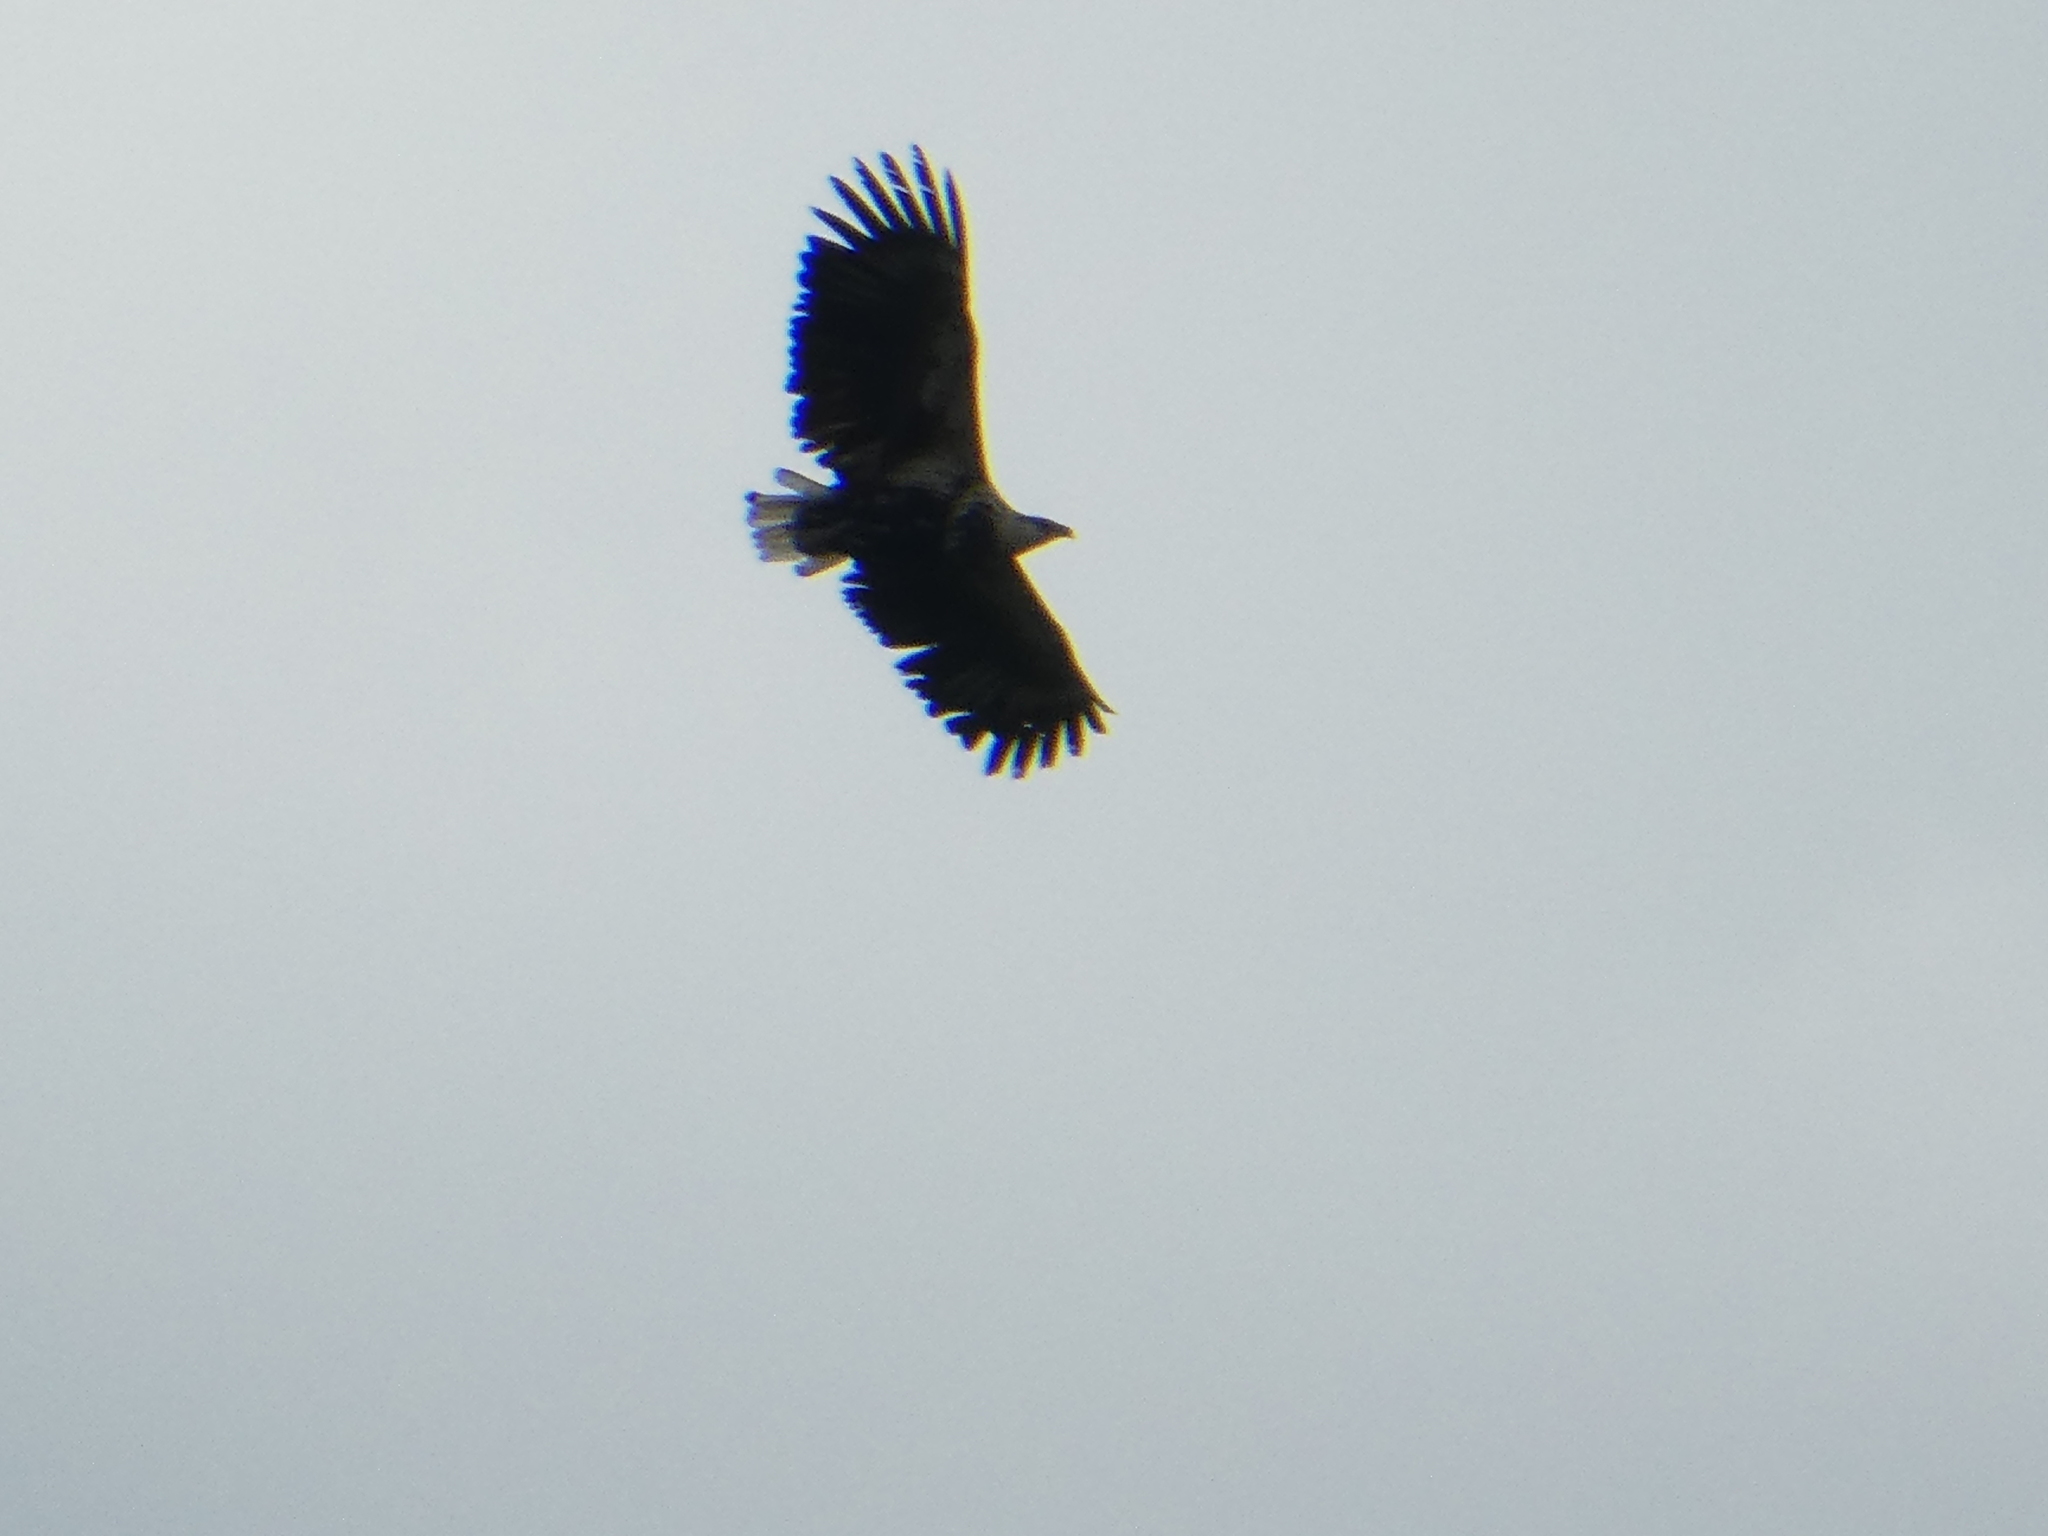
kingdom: Animalia
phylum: Chordata
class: Aves
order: Accipitriformes
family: Accipitridae
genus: Haliaeetus
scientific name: Haliaeetus vocifer
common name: African fish eagle
